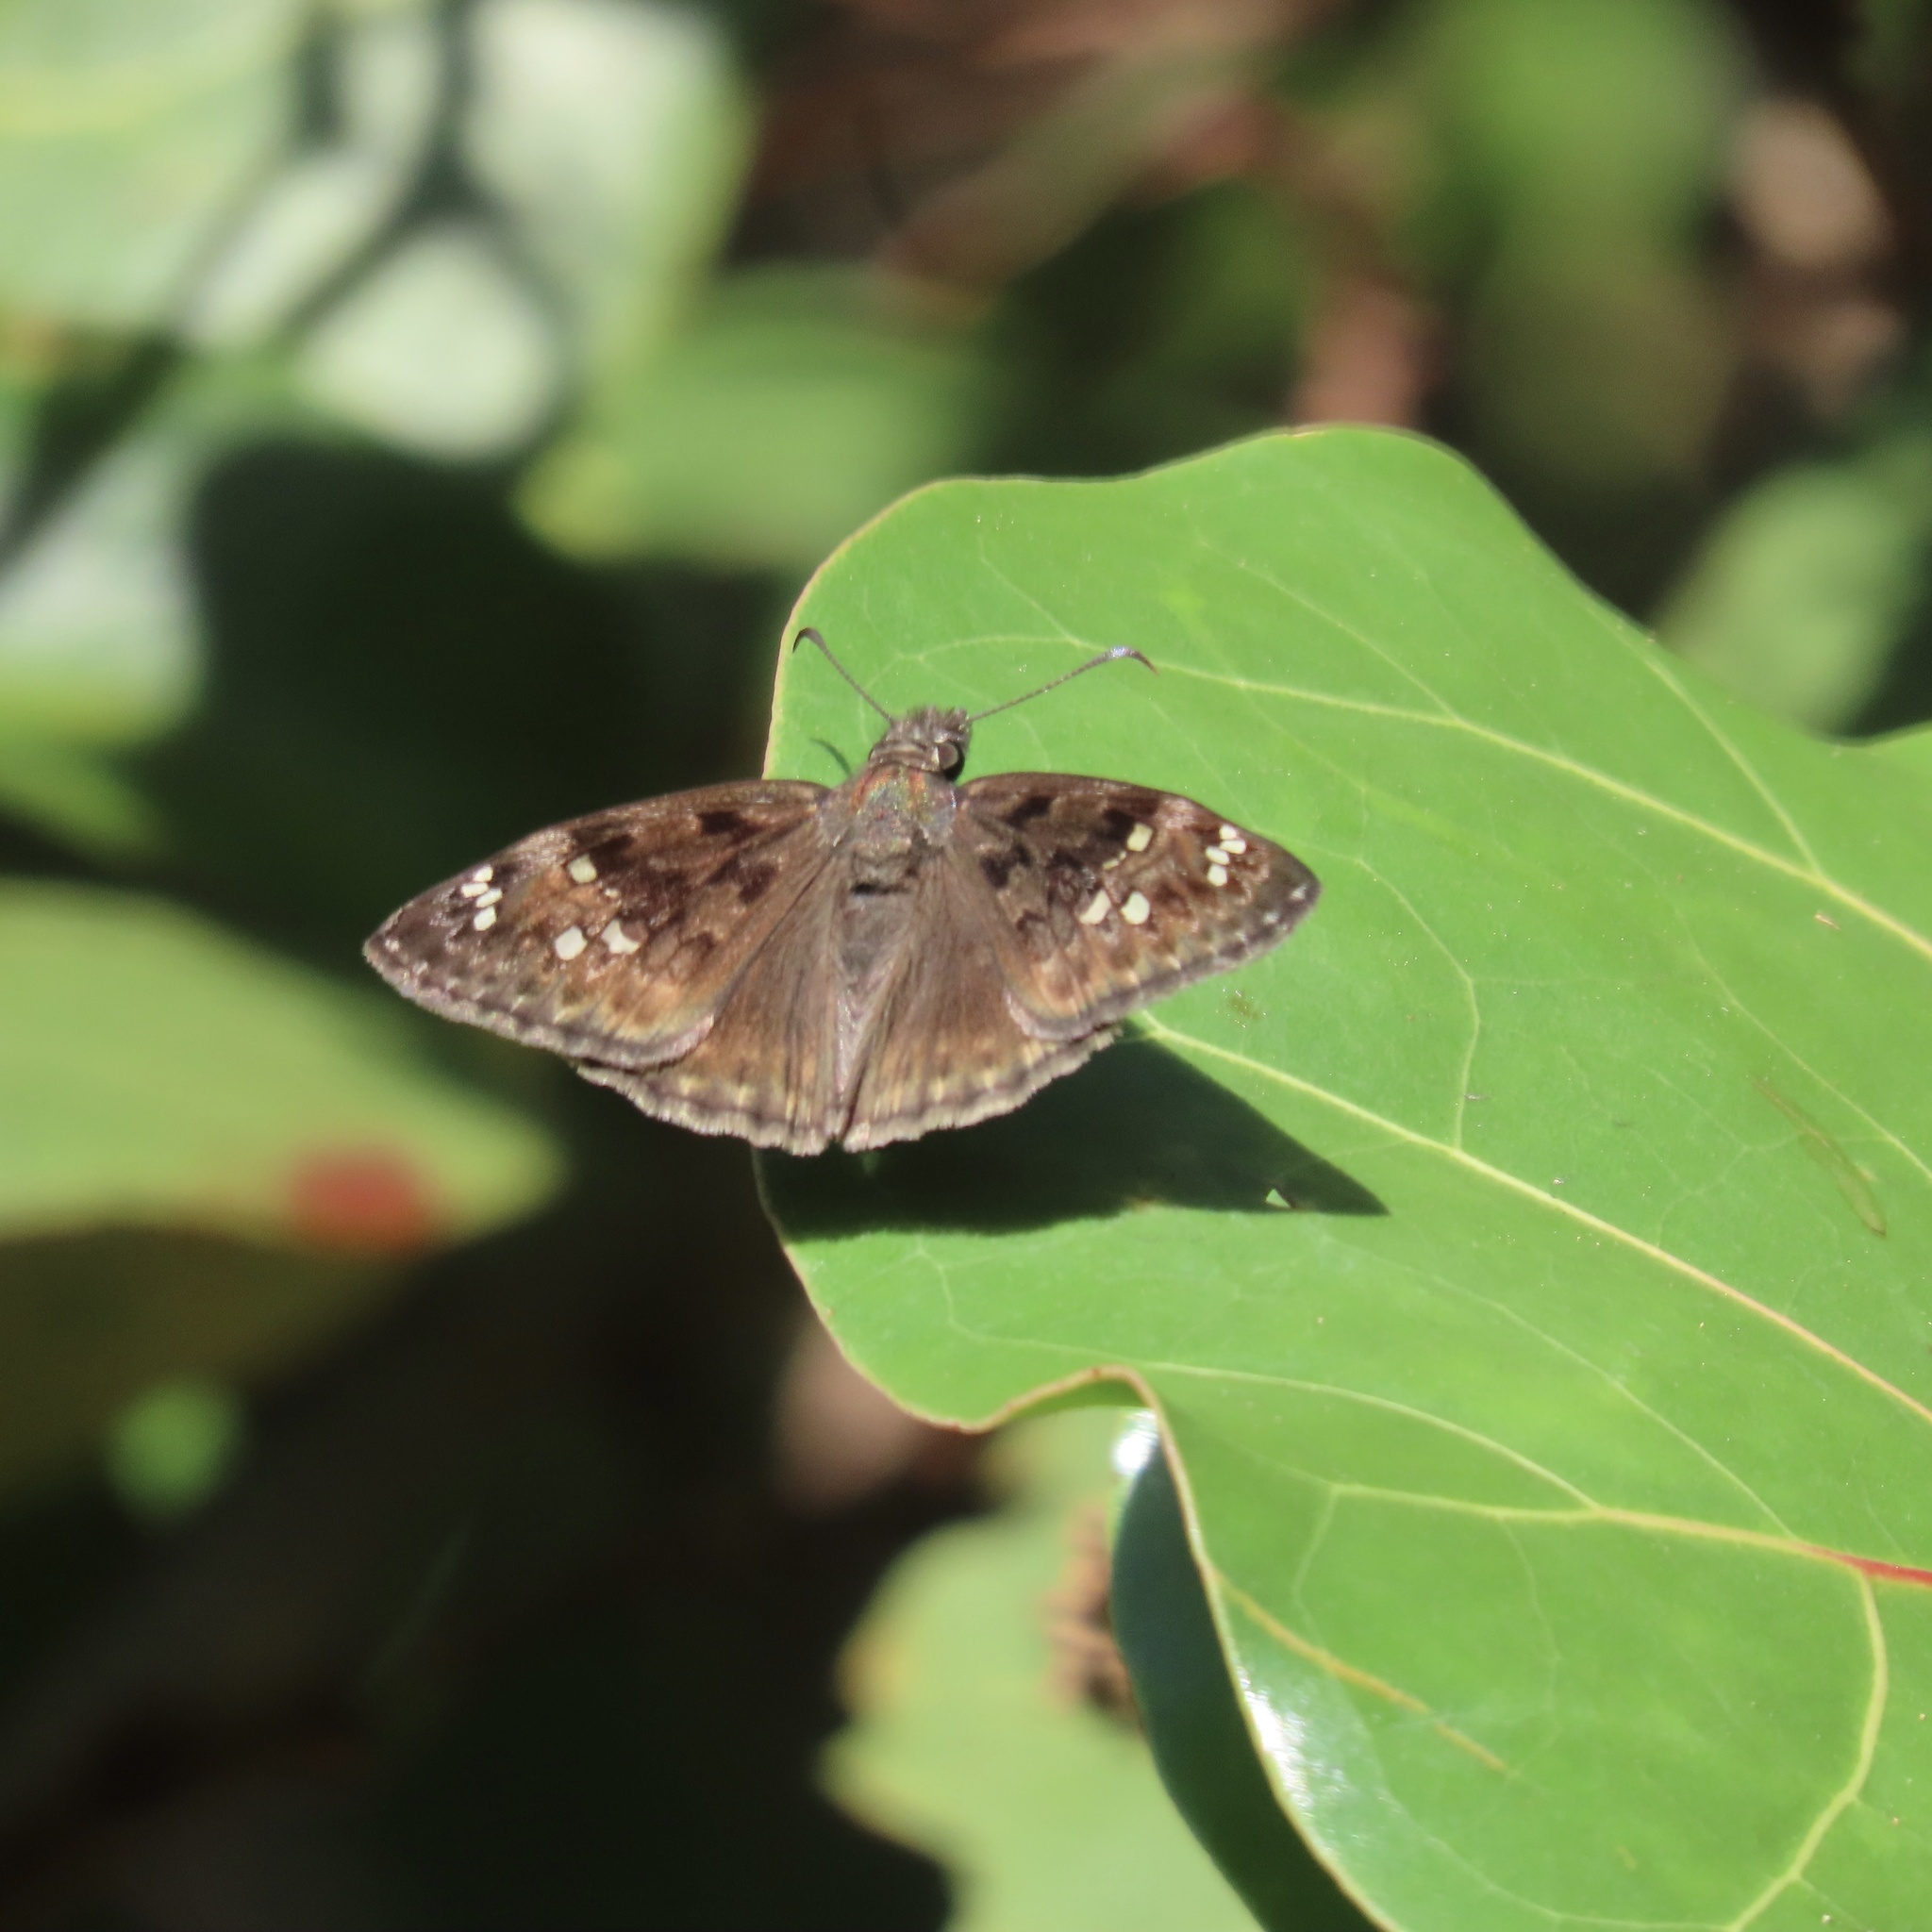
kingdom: Animalia
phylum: Arthropoda
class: Insecta
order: Lepidoptera
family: Hesperiidae
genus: Erynnis
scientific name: Erynnis horatius
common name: Horace's duskywing
